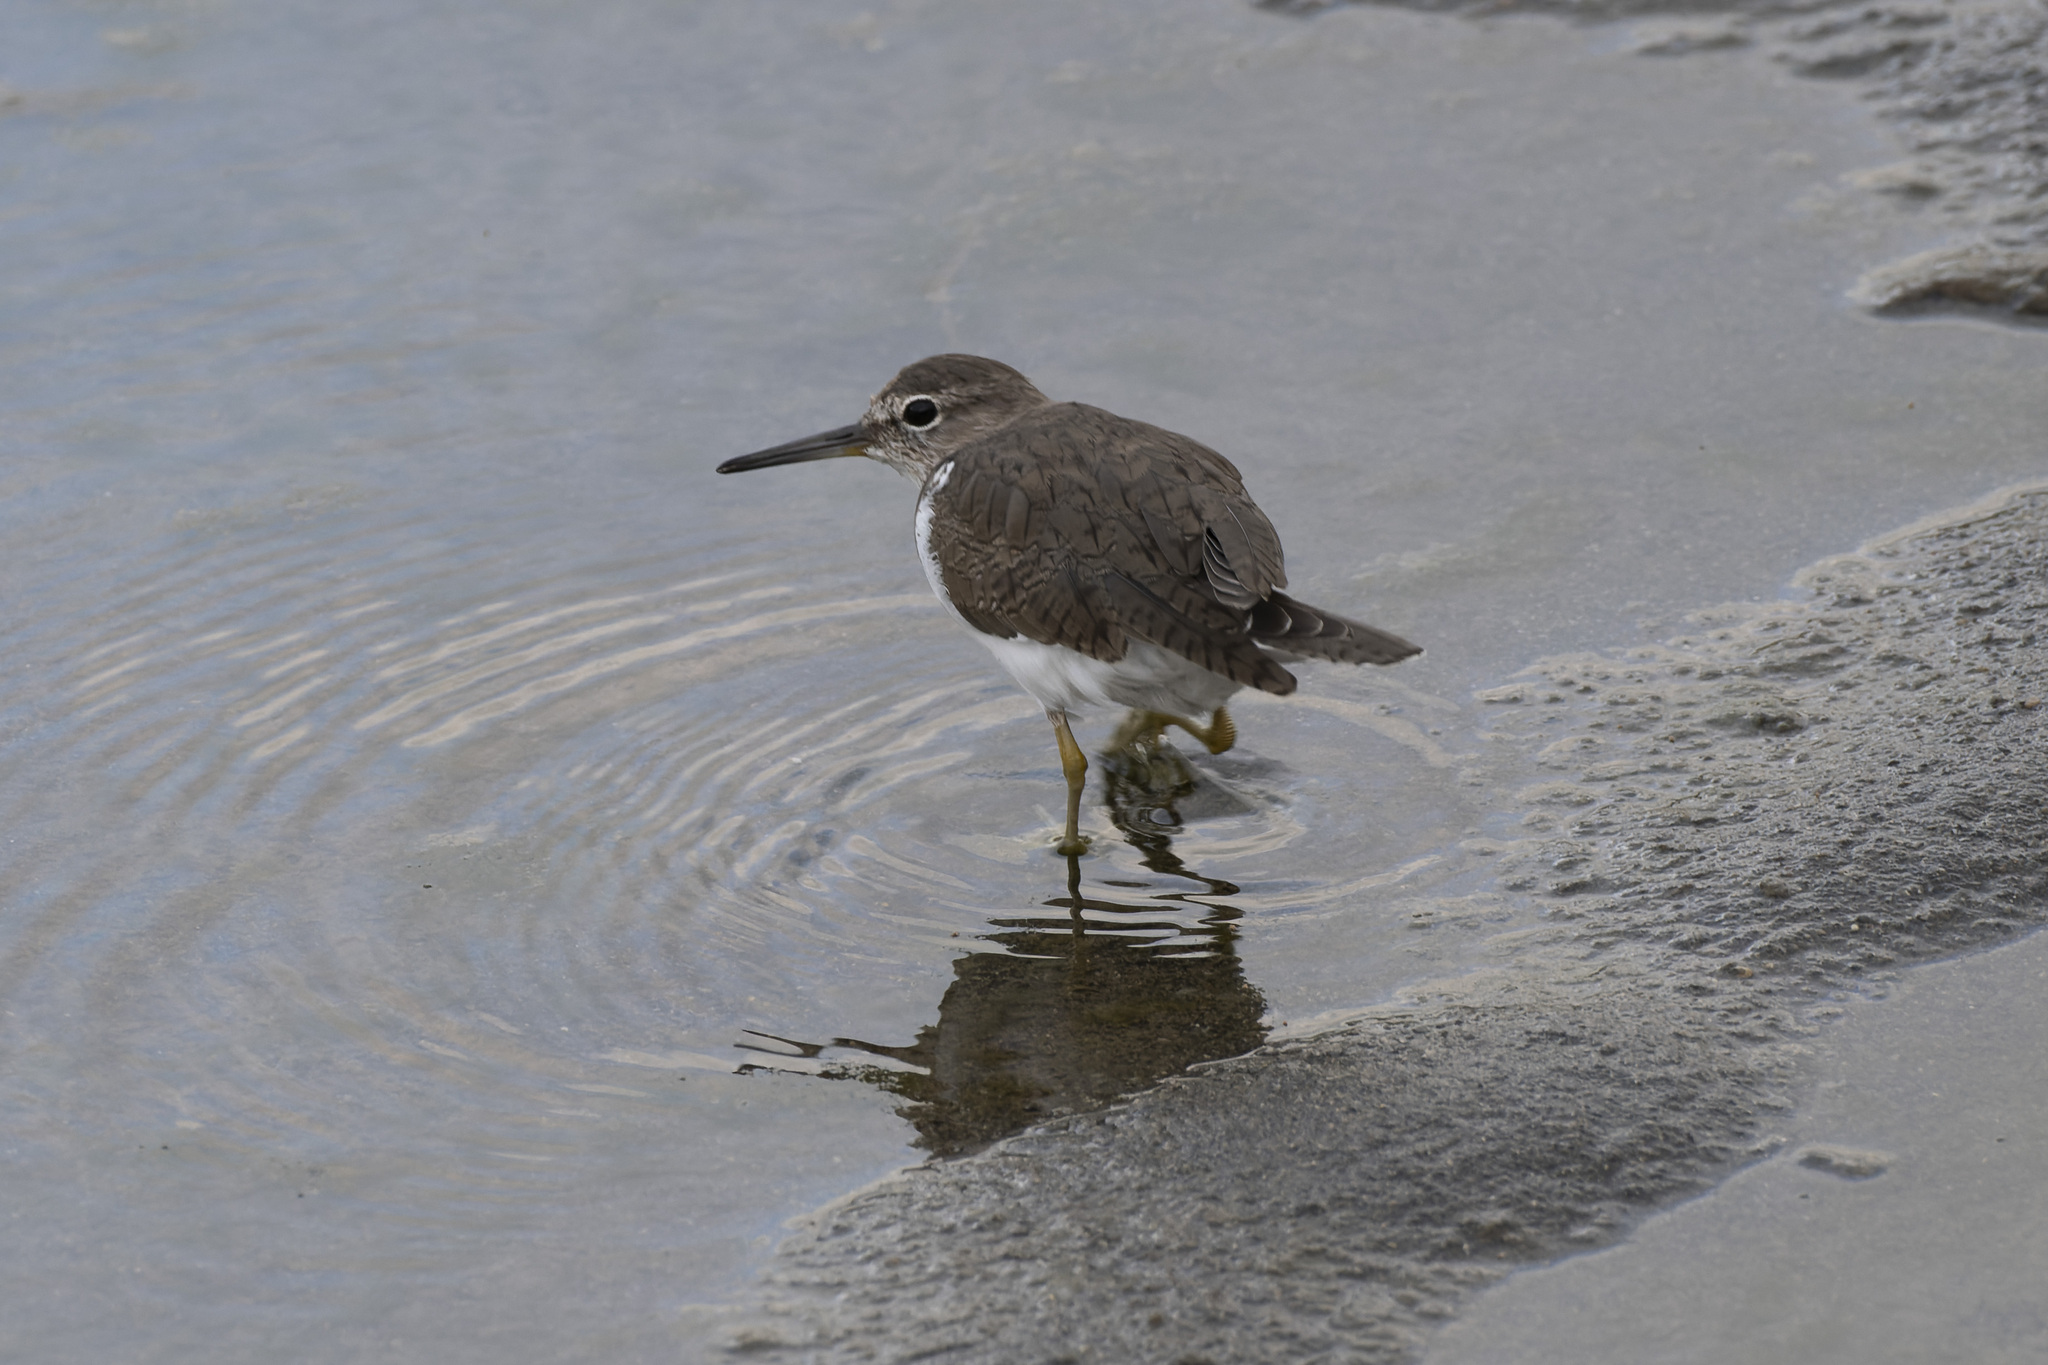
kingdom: Animalia
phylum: Chordata
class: Aves
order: Charadriiformes
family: Scolopacidae
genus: Actitis
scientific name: Actitis hypoleucos
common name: Common sandpiper
